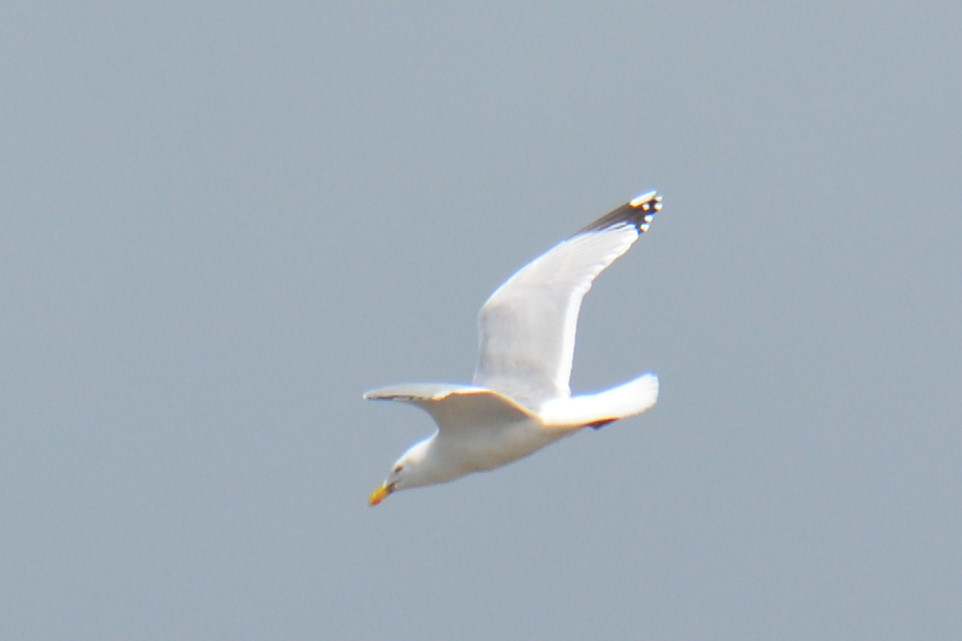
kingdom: Animalia
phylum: Chordata
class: Aves
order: Charadriiformes
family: Laridae
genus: Larus
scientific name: Larus argentatus
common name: Herring gull
